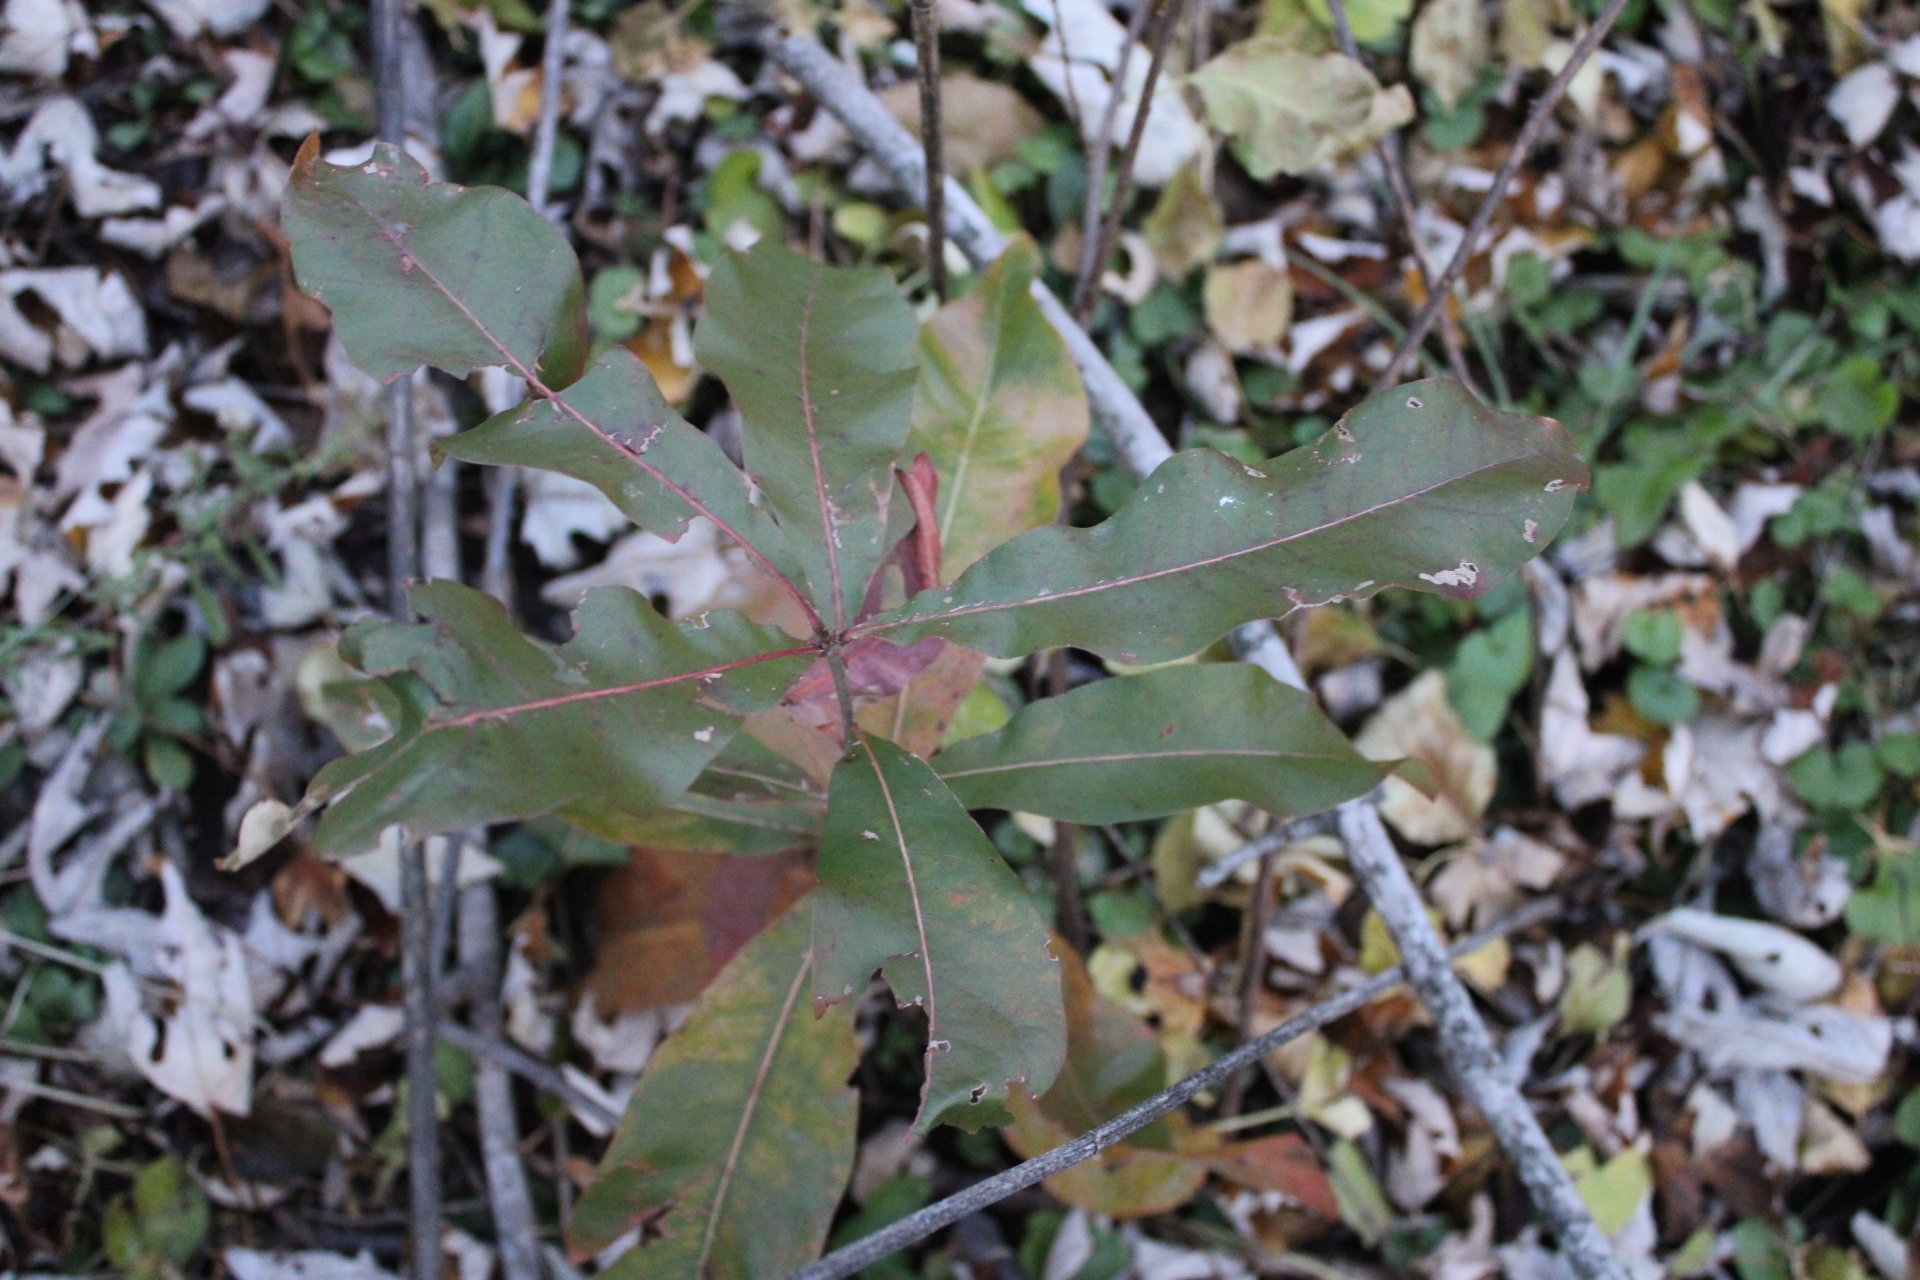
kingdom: Plantae
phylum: Tracheophyta
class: Magnoliopsida
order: Fagales
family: Fagaceae
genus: Quercus
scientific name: Quercus imbricaria
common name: Shingle oak
